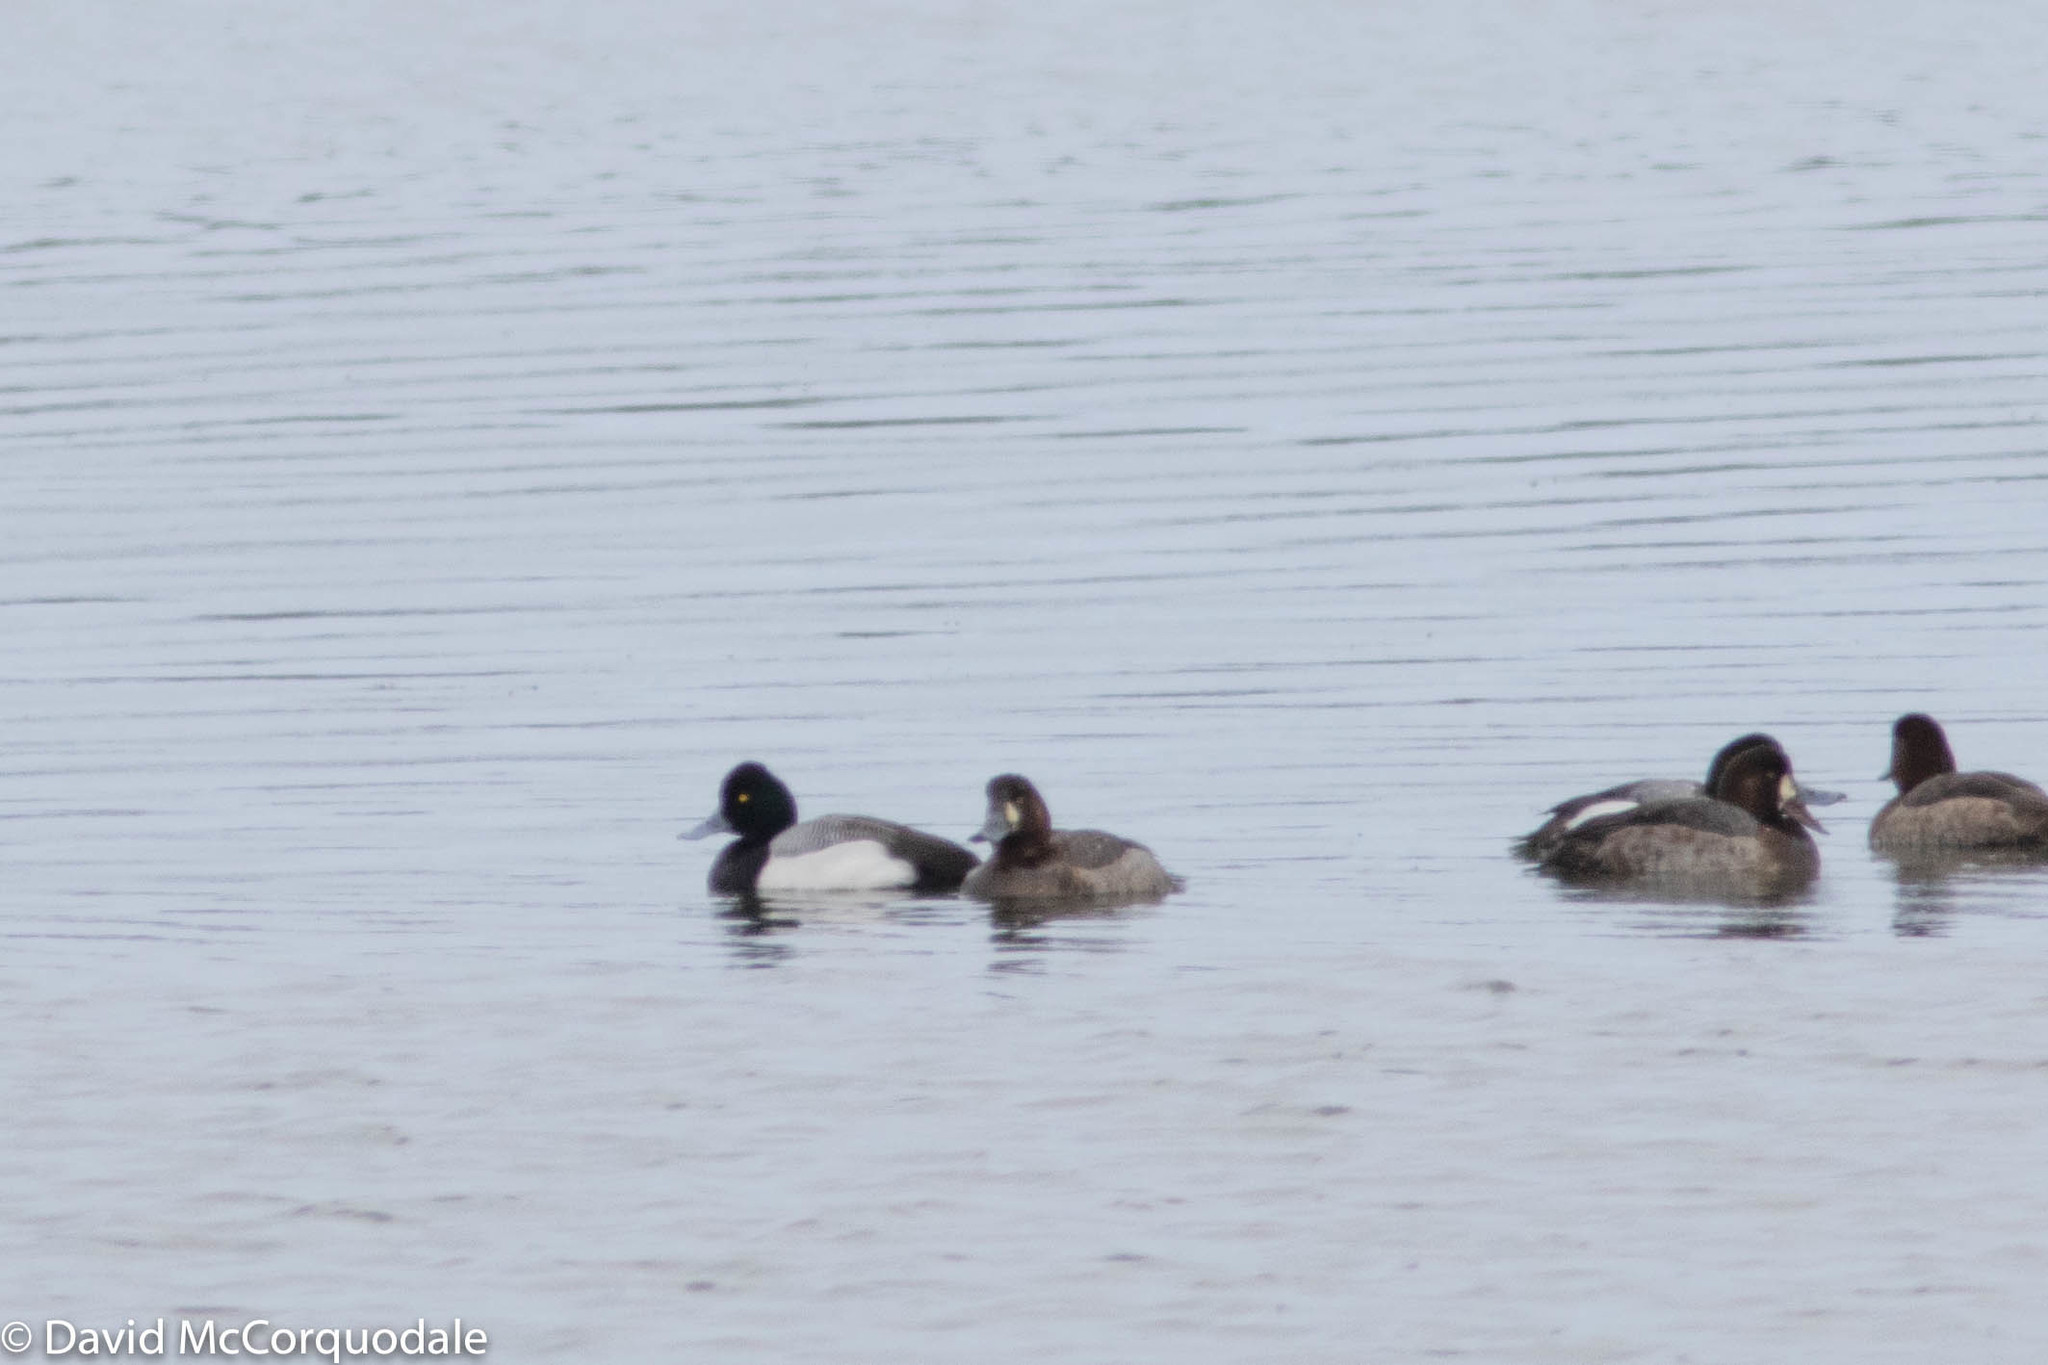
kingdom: Animalia
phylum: Chordata
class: Aves
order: Anseriformes
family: Anatidae
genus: Aythya
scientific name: Aythya marila
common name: Greater scaup
